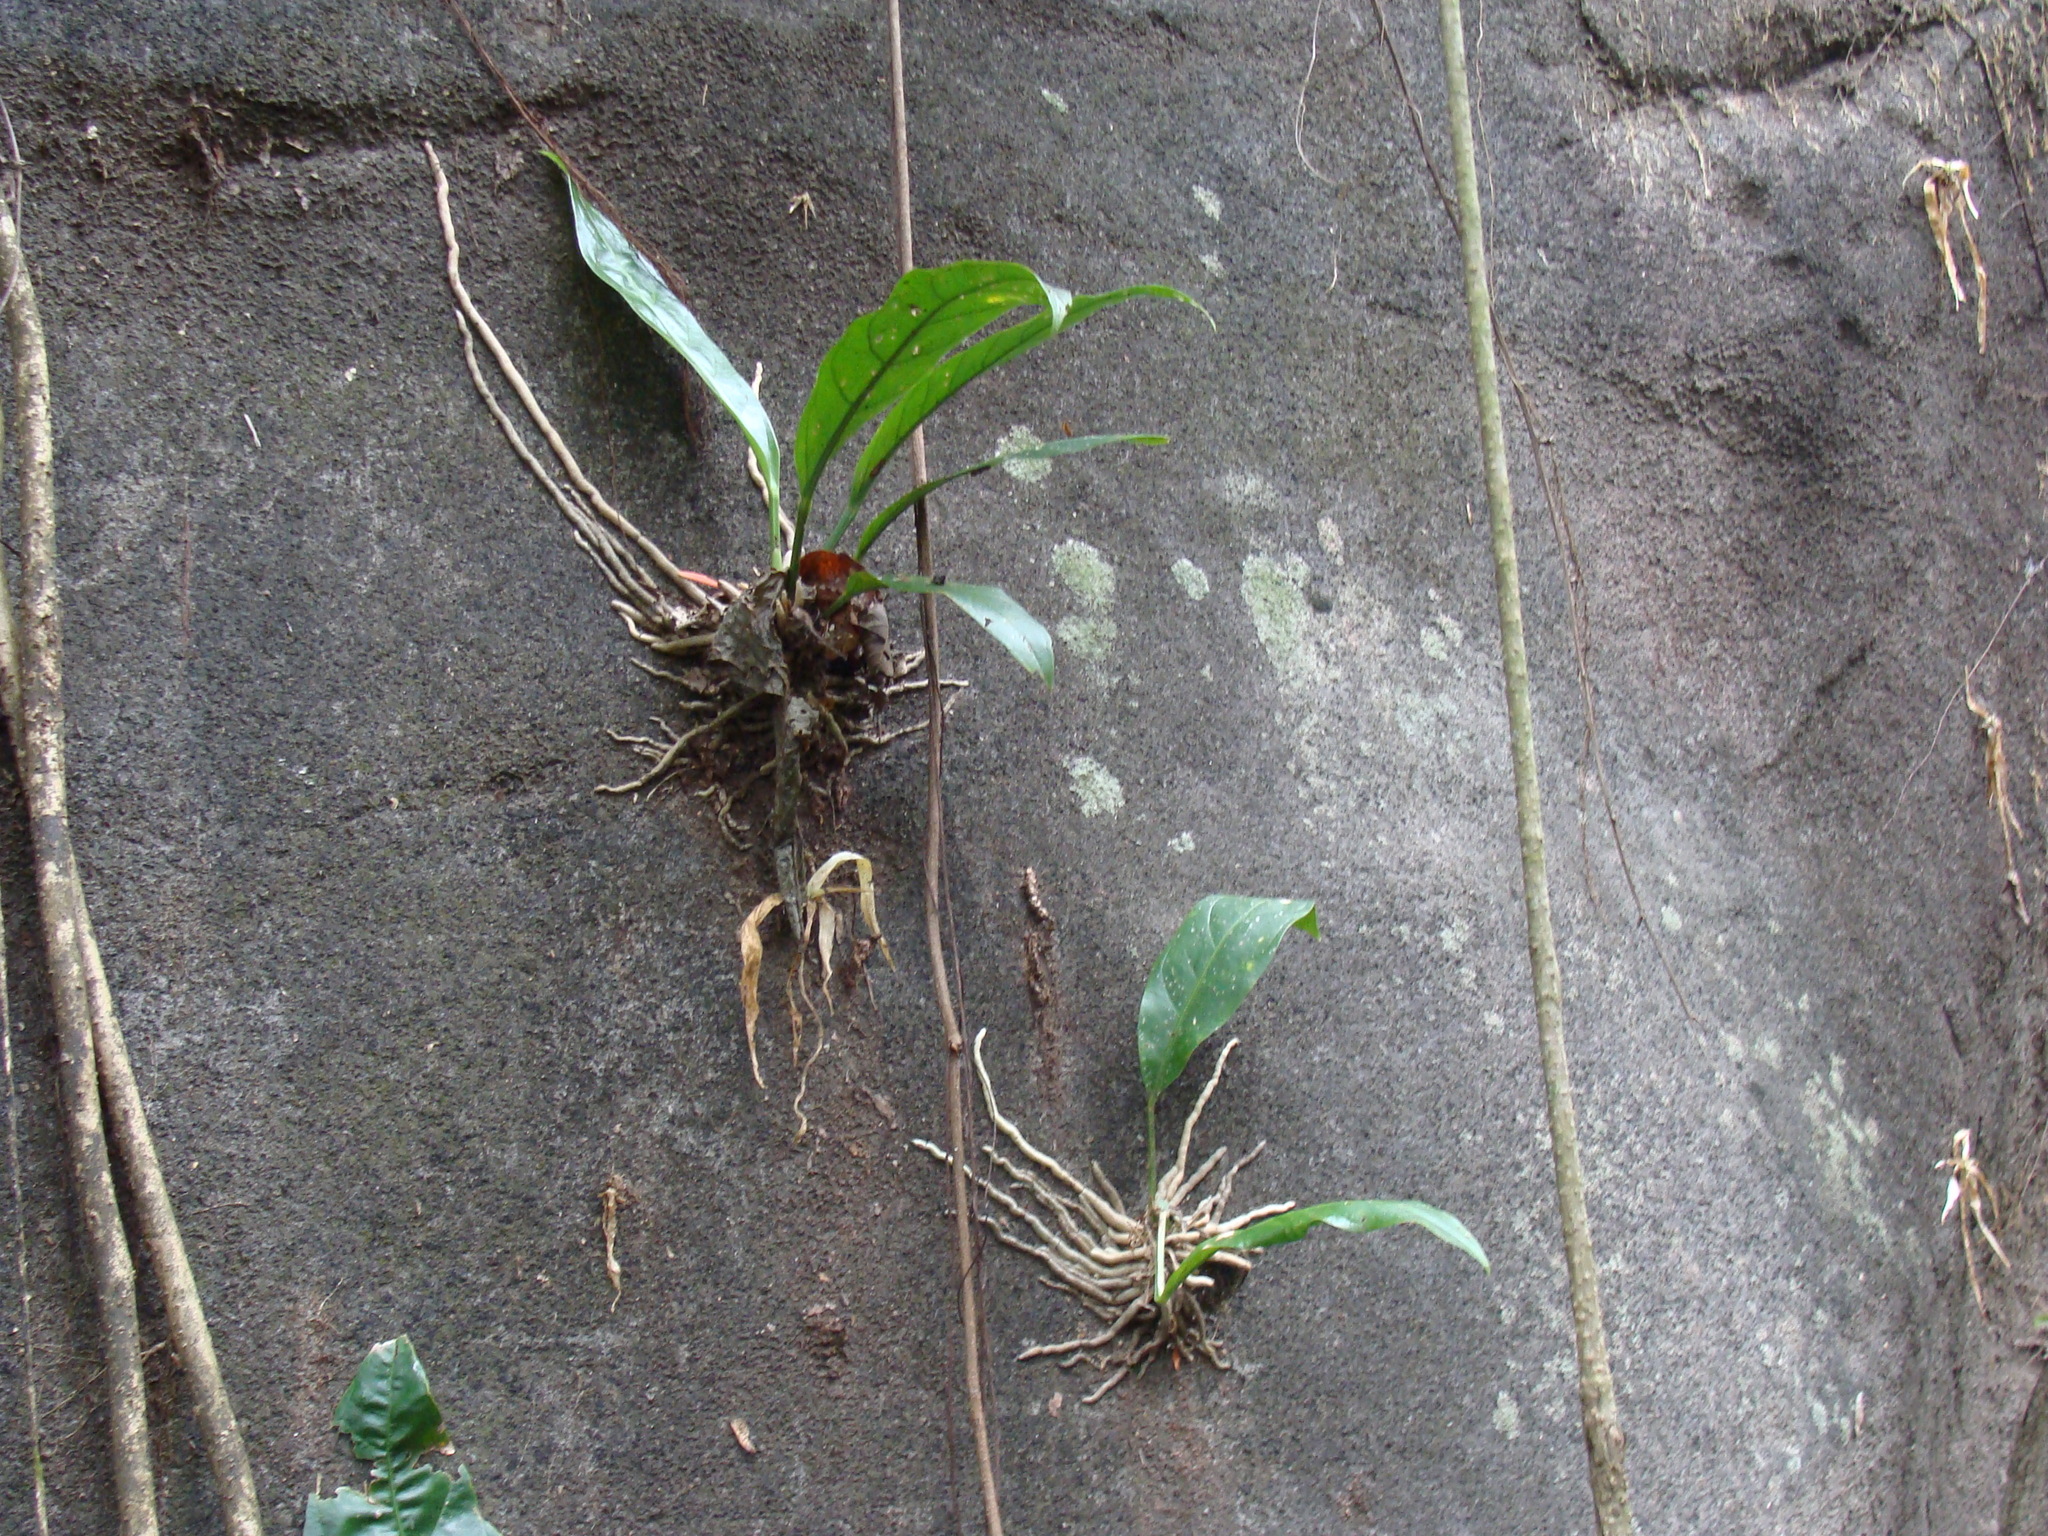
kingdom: Plantae
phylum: Tracheophyta
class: Liliopsida
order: Alismatales
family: Araceae
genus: Anthurium
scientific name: Anthurium salvinii
